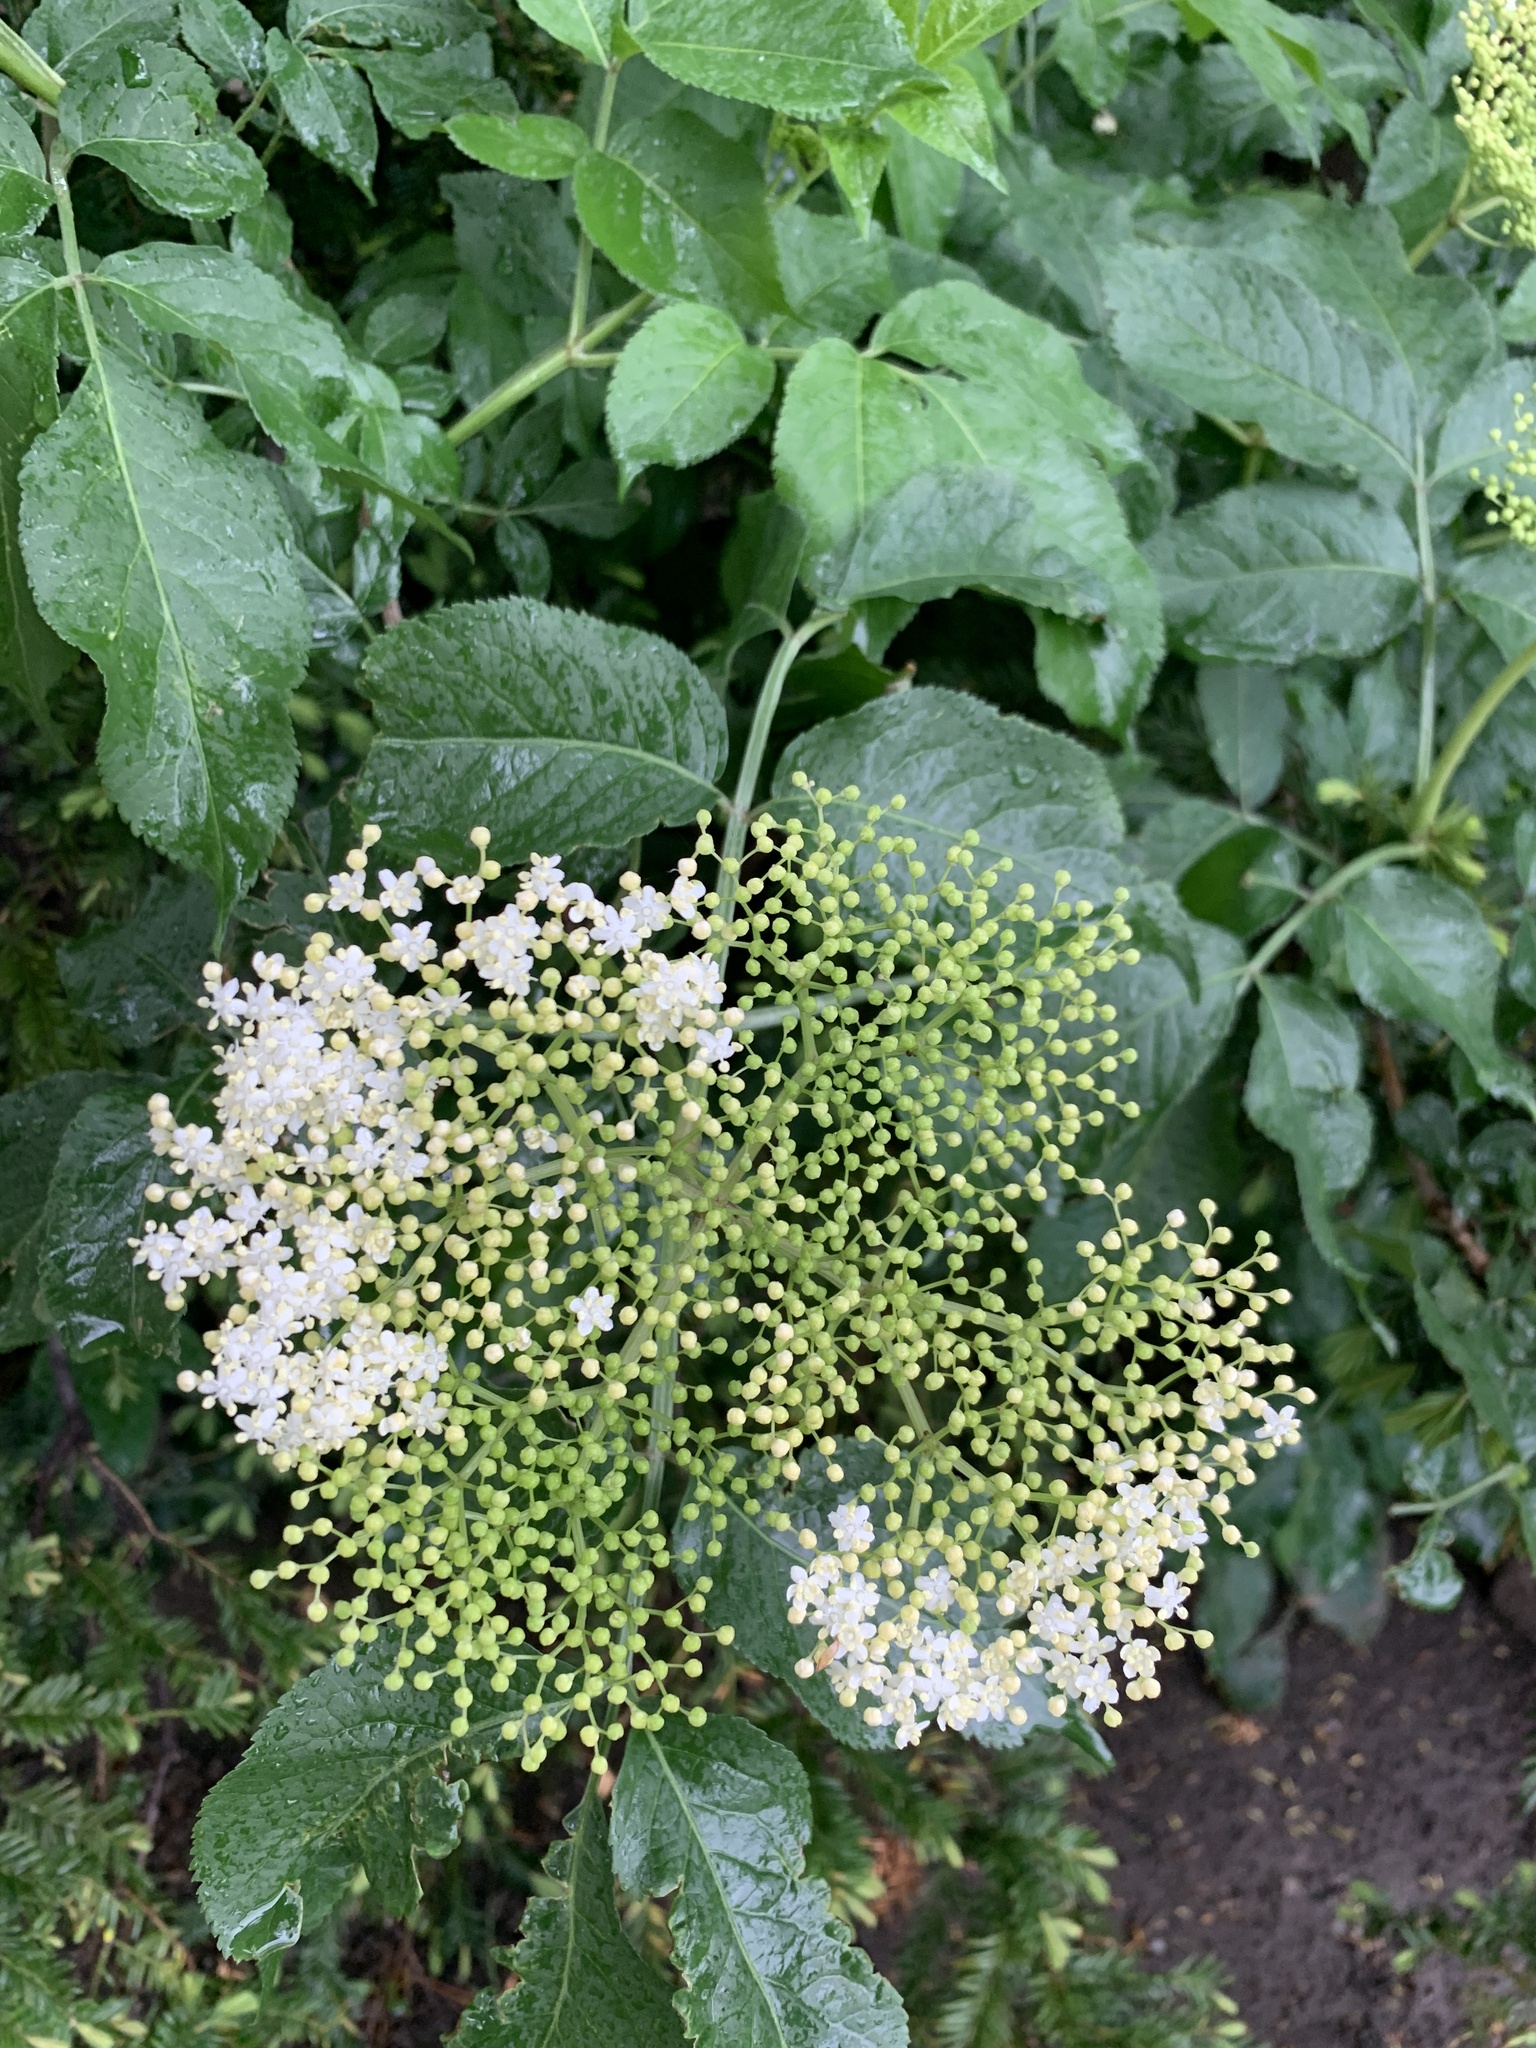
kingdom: Plantae
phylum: Tracheophyta
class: Magnoliopsida
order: Dipsacales
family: Viburnaceae
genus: Sambucus
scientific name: Sambucus nigra
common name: Elder
